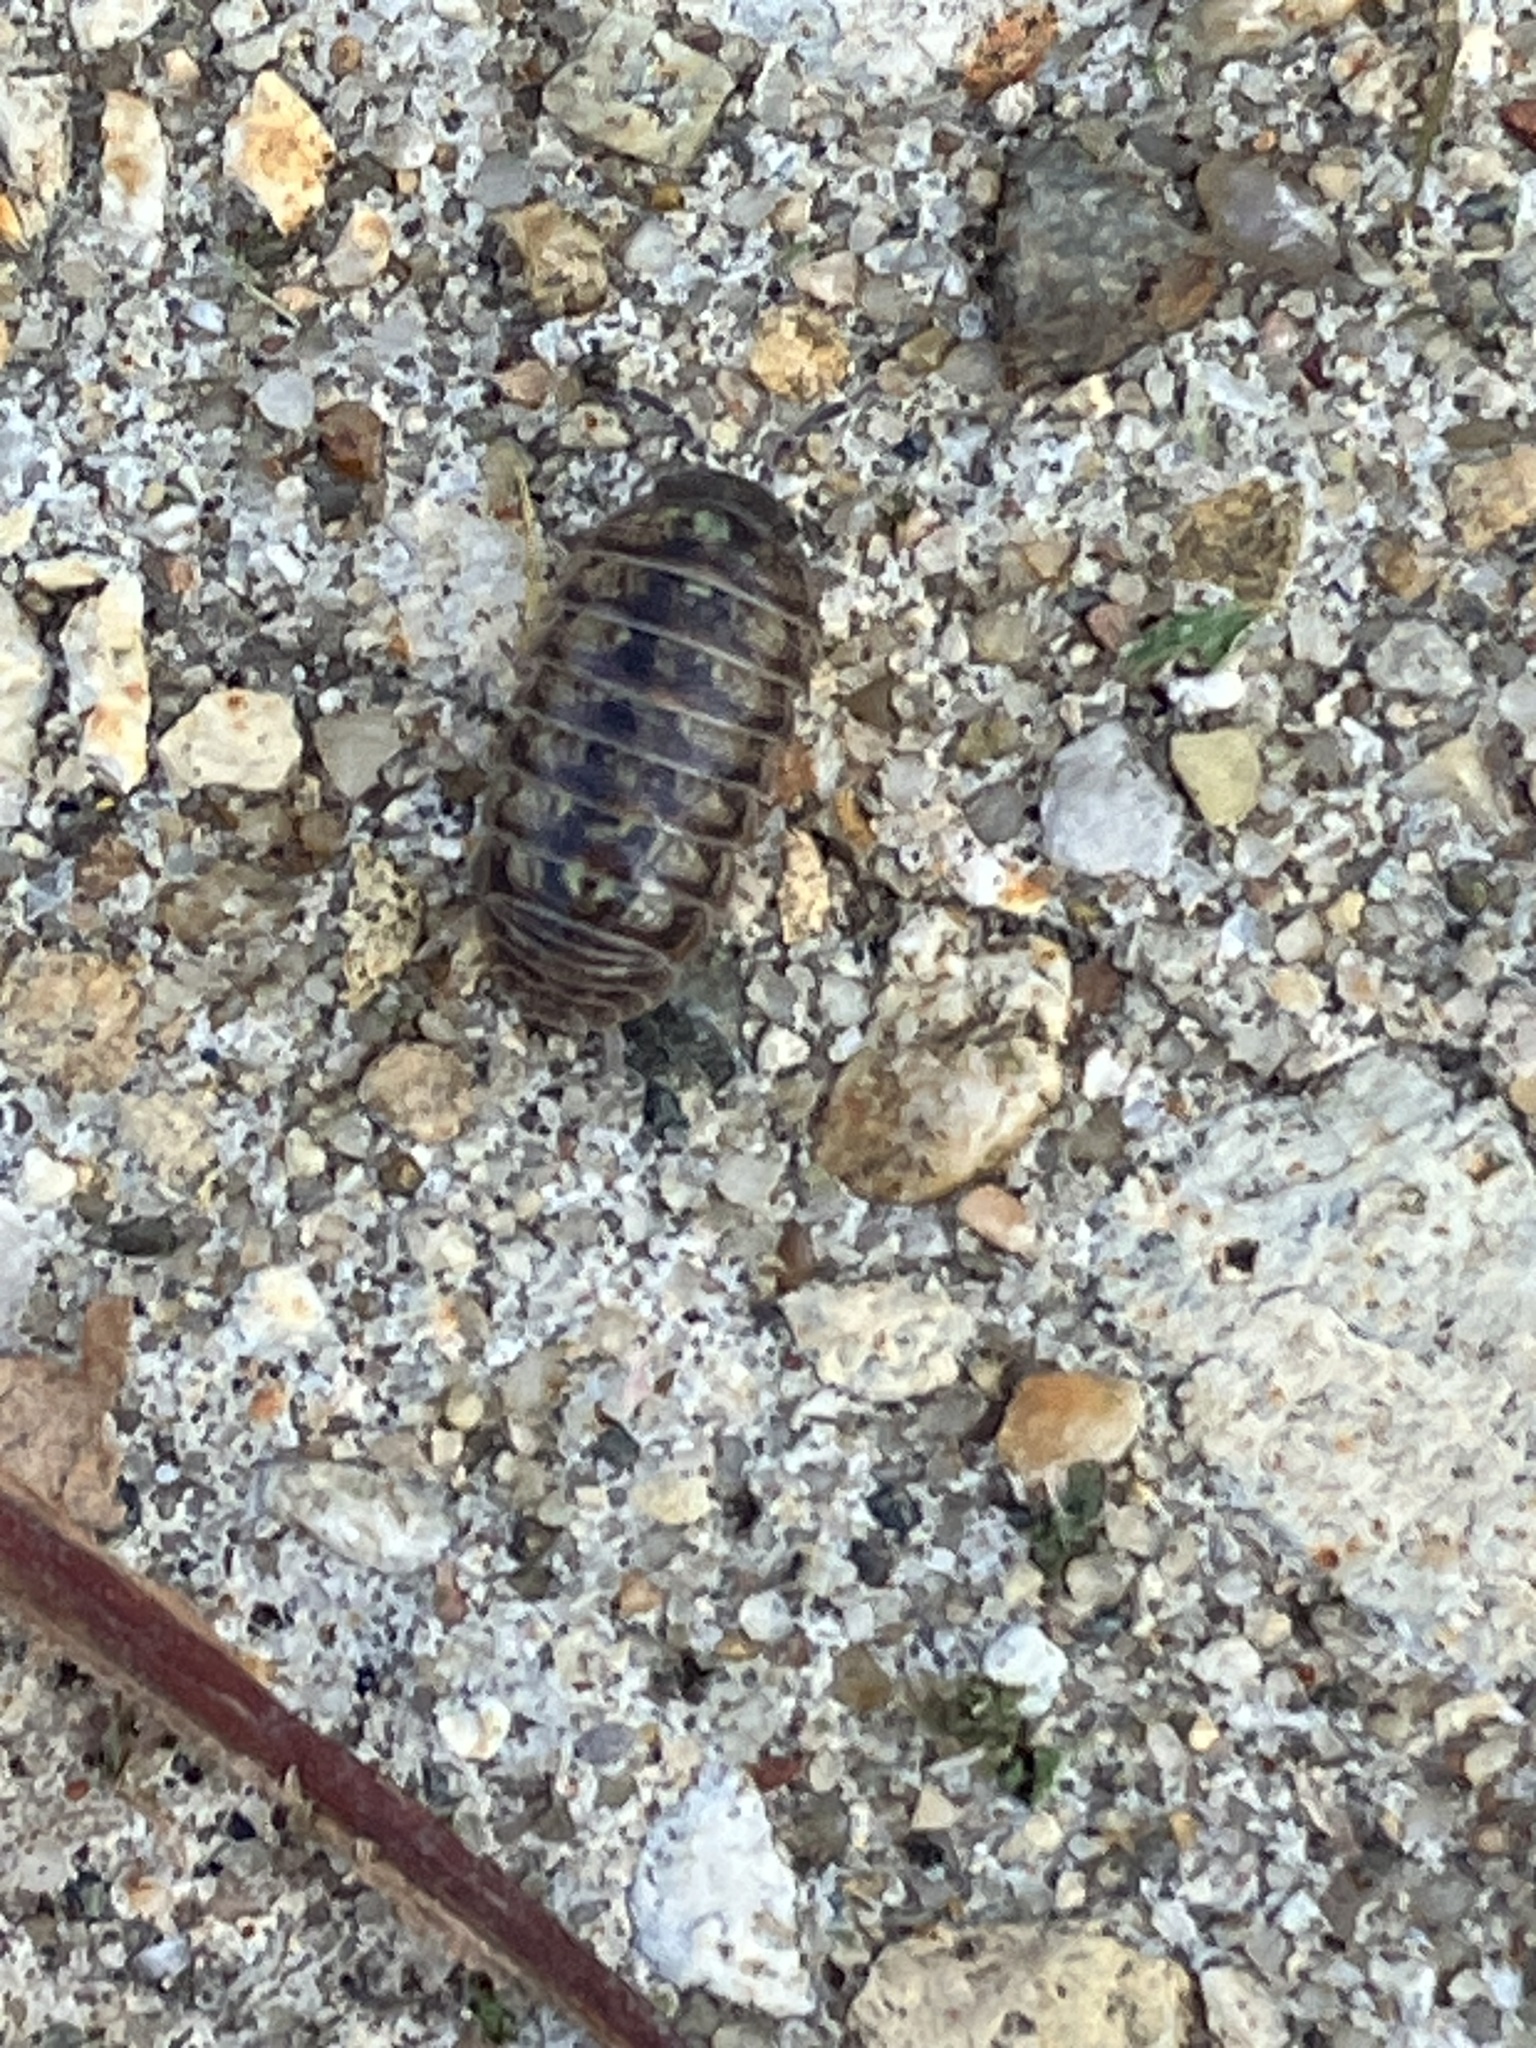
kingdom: Animalia
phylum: Arthropoda
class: Malacostraca
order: Isopoda
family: Armadillidiidae
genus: Armadillidium
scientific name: Armadillidium vulgare
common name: Common pill woodlouse
